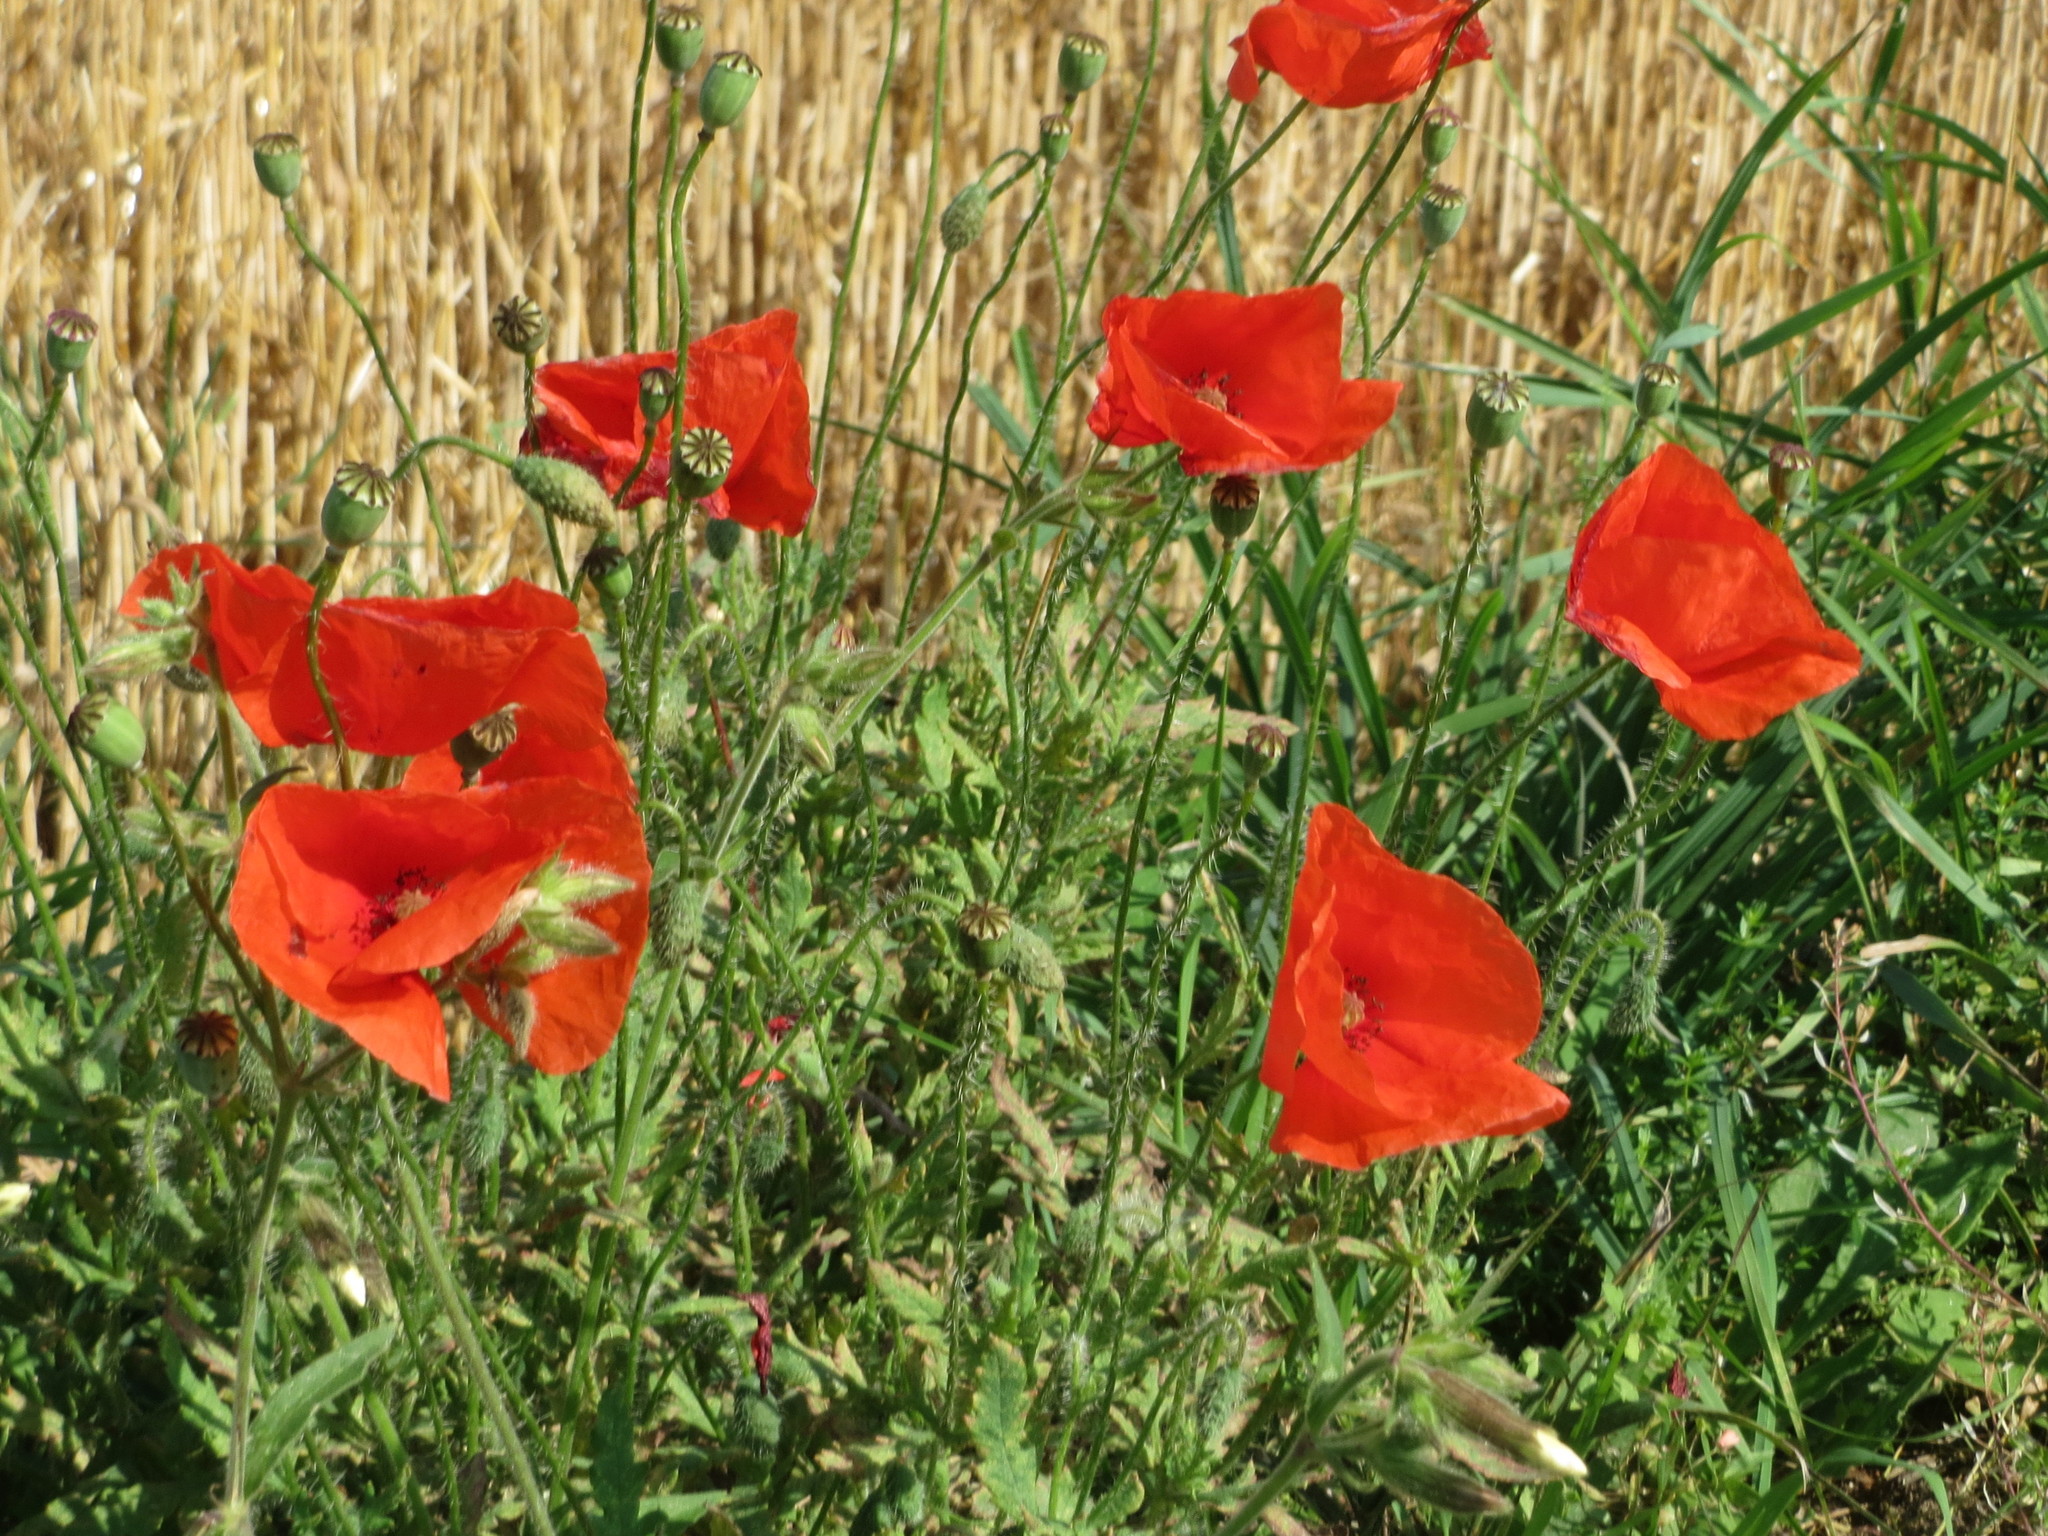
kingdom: Plantae
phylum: Tracheophyta
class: Magnoliopsida
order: Ranunculales
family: Papaveraceae
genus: Papaver
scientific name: Papaver rhoeas
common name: Corn poppy
